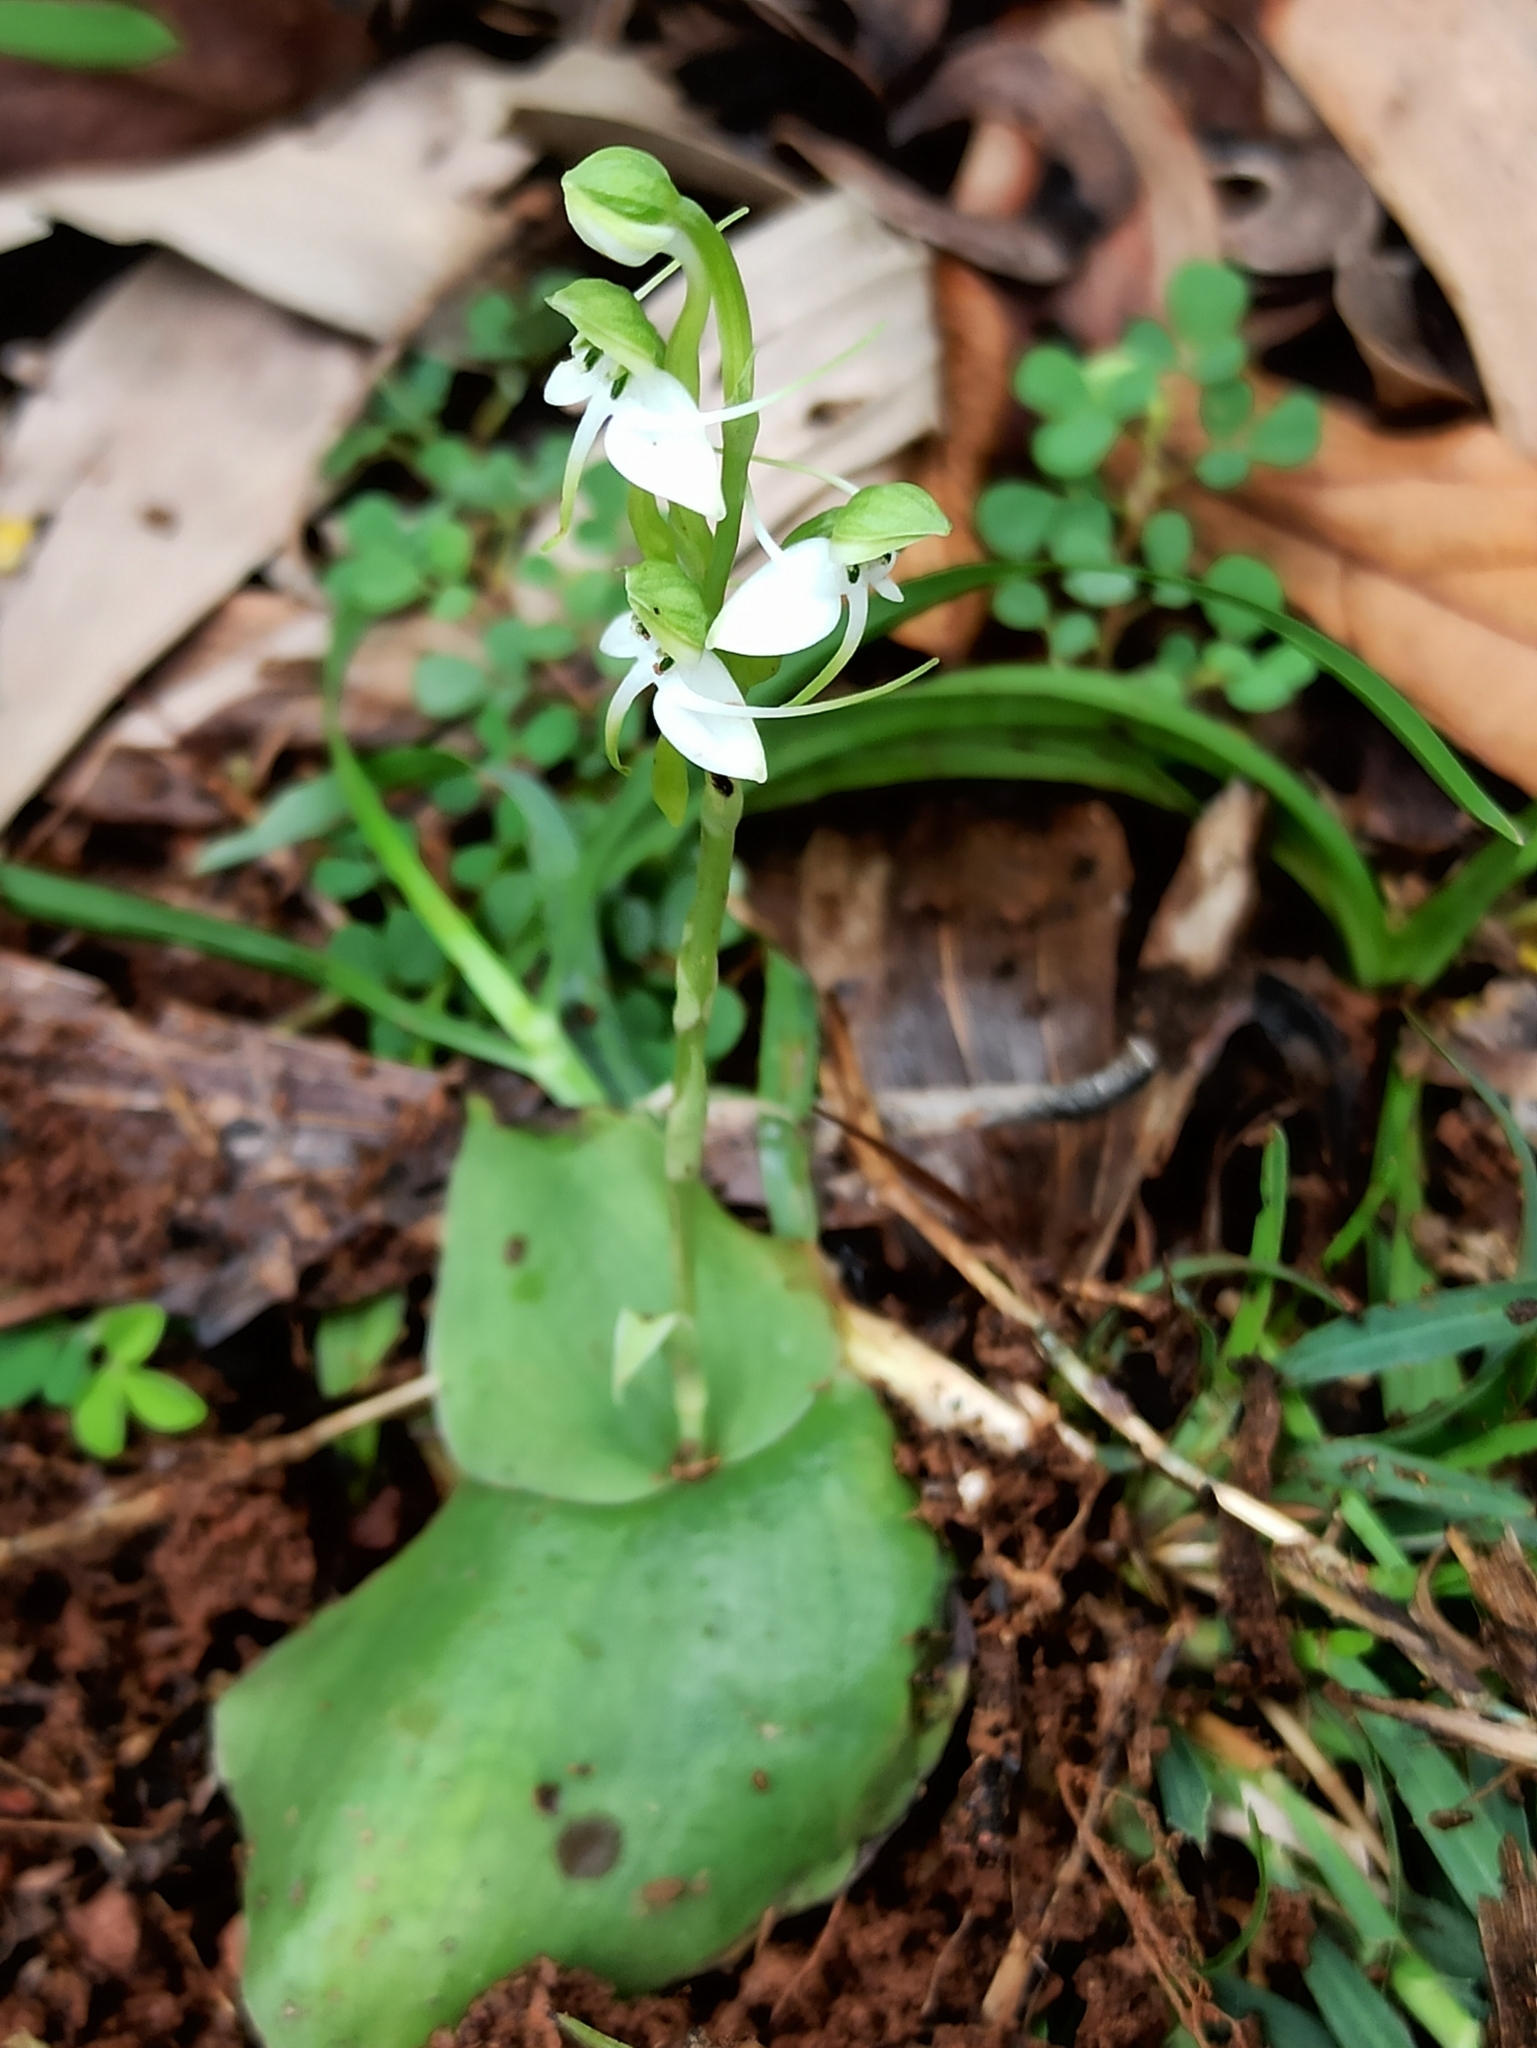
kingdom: Plantae
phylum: Tracheophyta
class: Liliopsida
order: Asparagales
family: Orchidaceae
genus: Habenaria
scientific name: Habenaria diphylla
